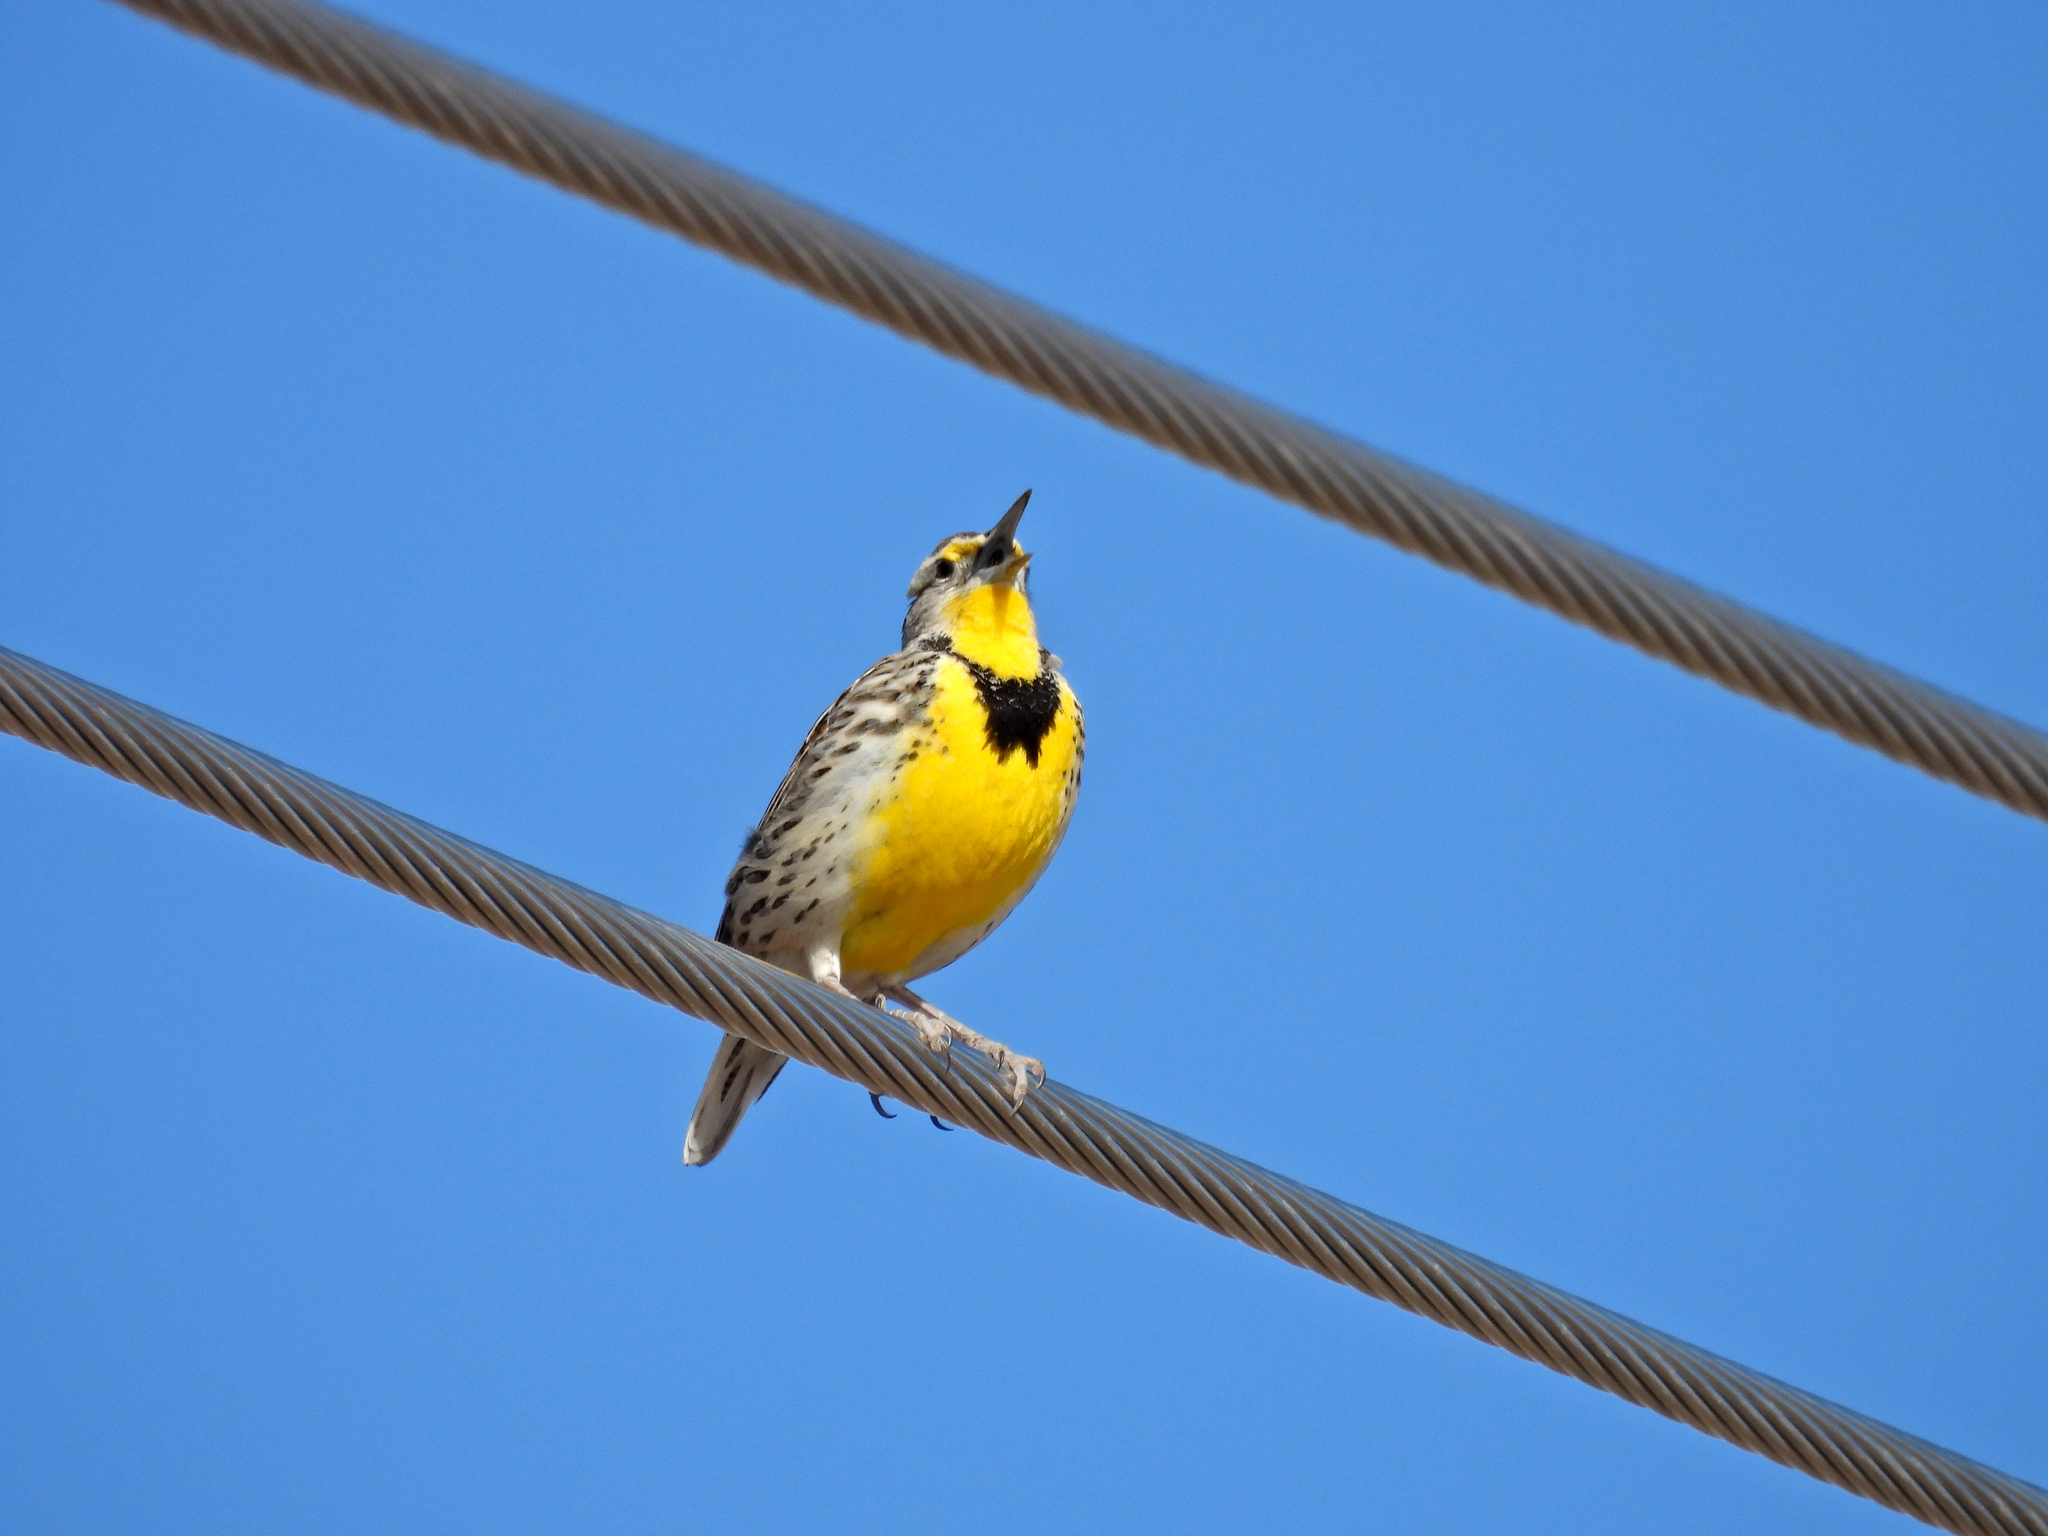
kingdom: Animalia
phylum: Chordata
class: Aves
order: Passeriformes
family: Icteridae
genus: Sturnella
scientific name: Sturnella neglecta
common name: Western meadowlark
